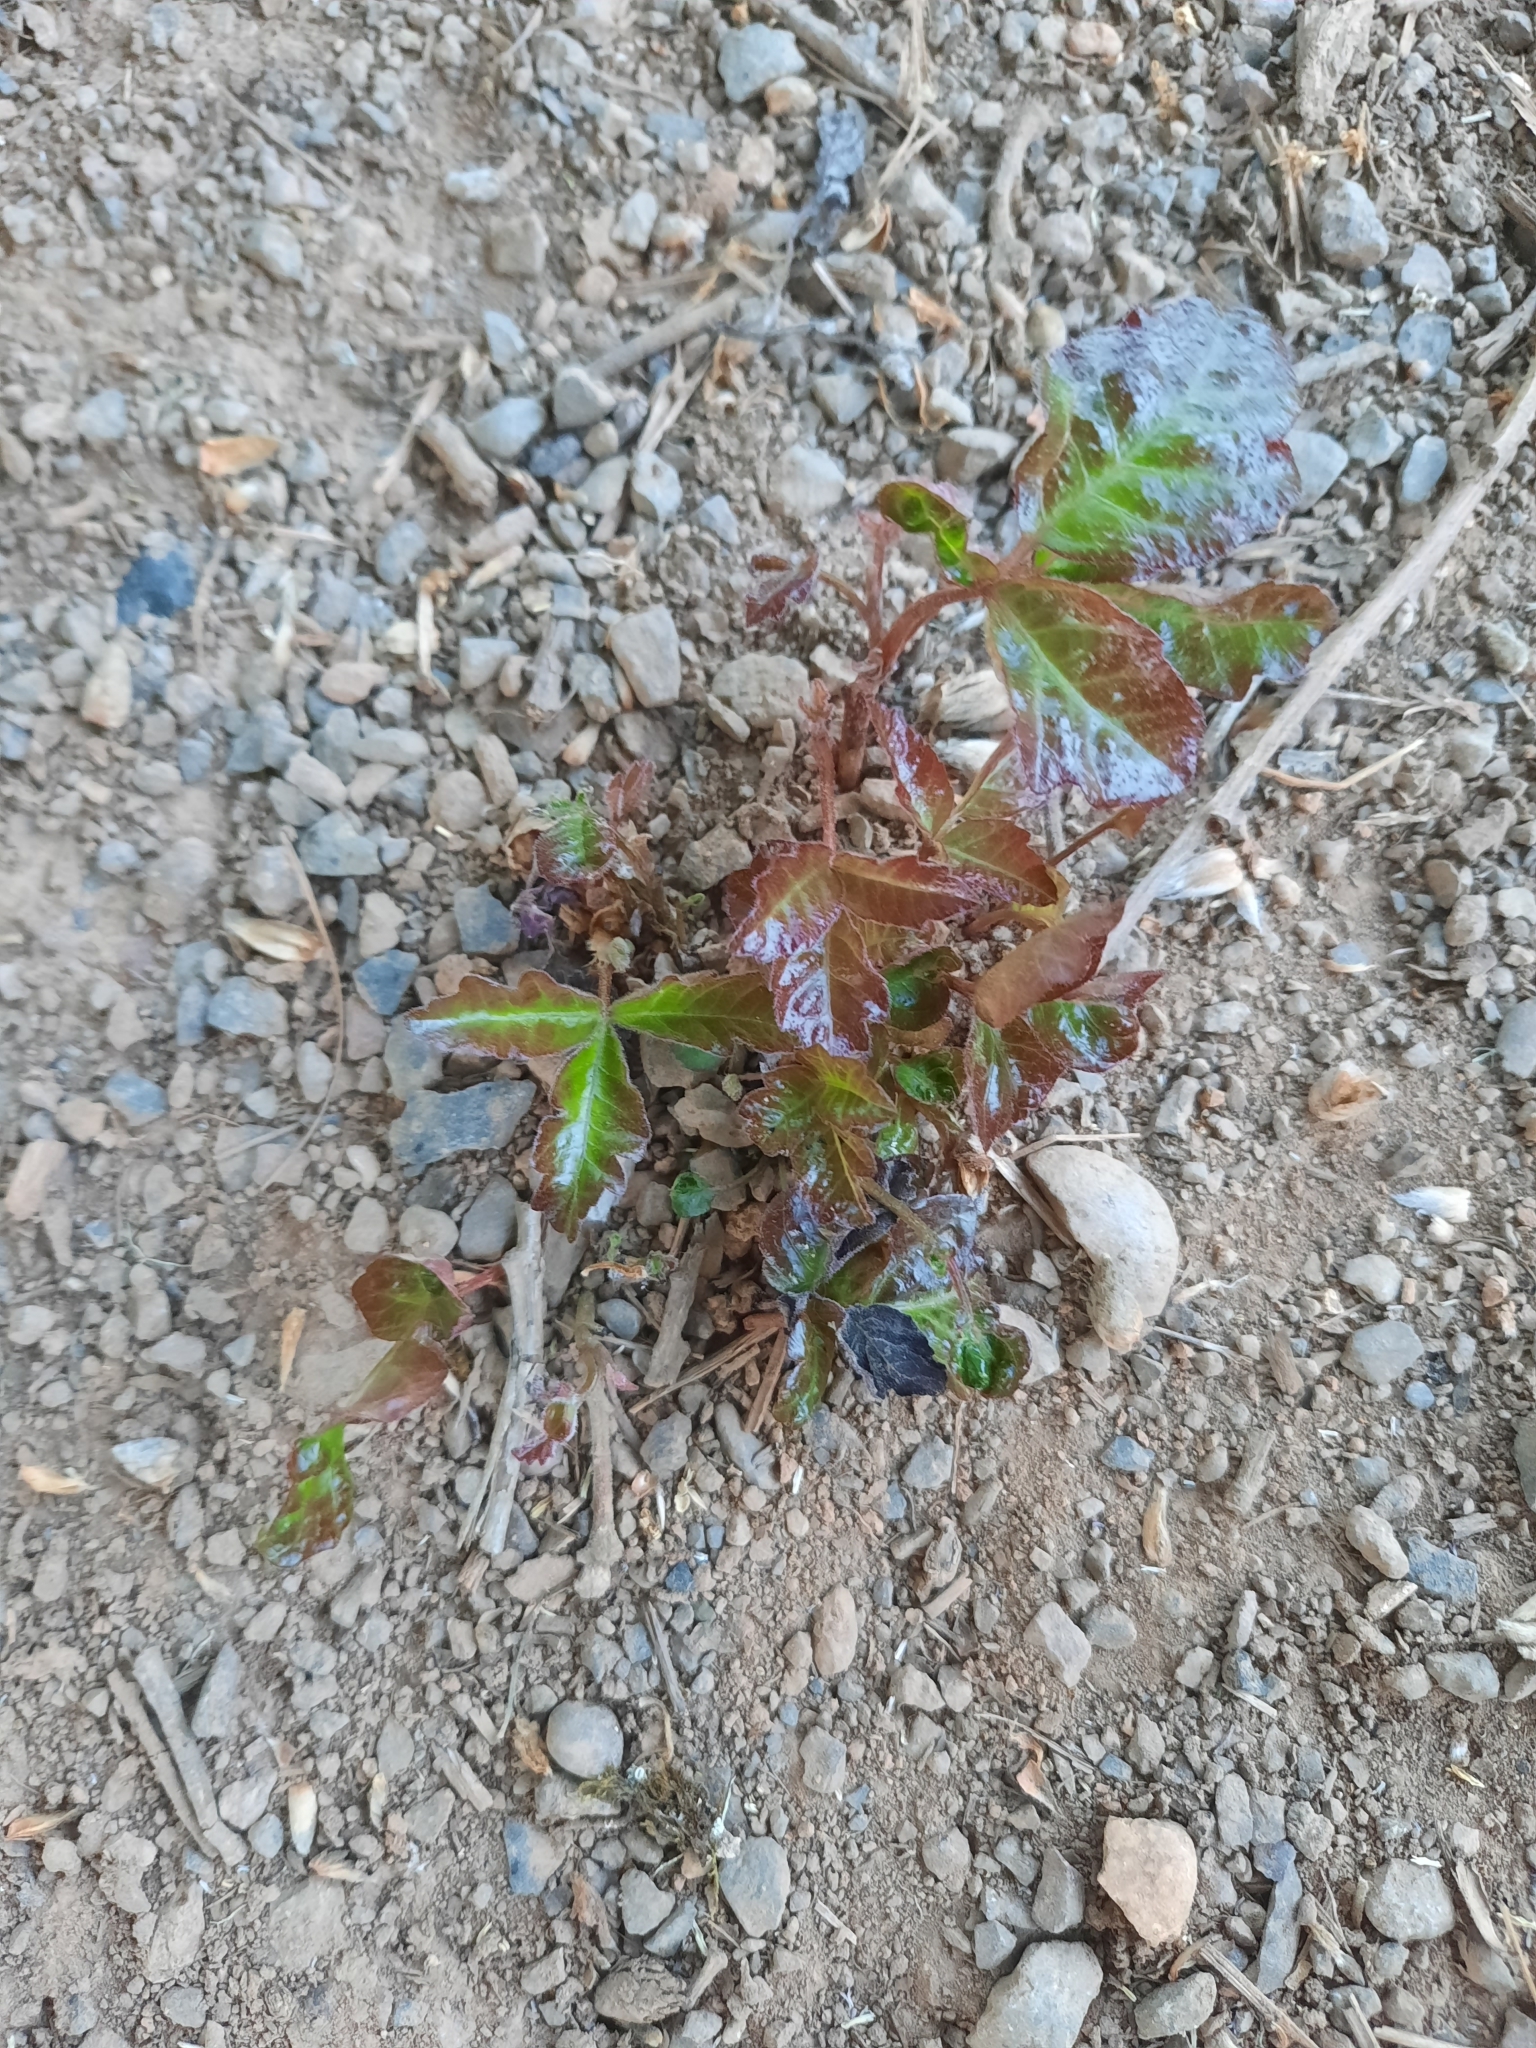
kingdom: Plantae
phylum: Tracheophyta
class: Magnoliopsida
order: Sapindales
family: Anacardiaceae
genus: Toxicodendron
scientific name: Toxicodendron diversilobum
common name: Pacific poison-oak
